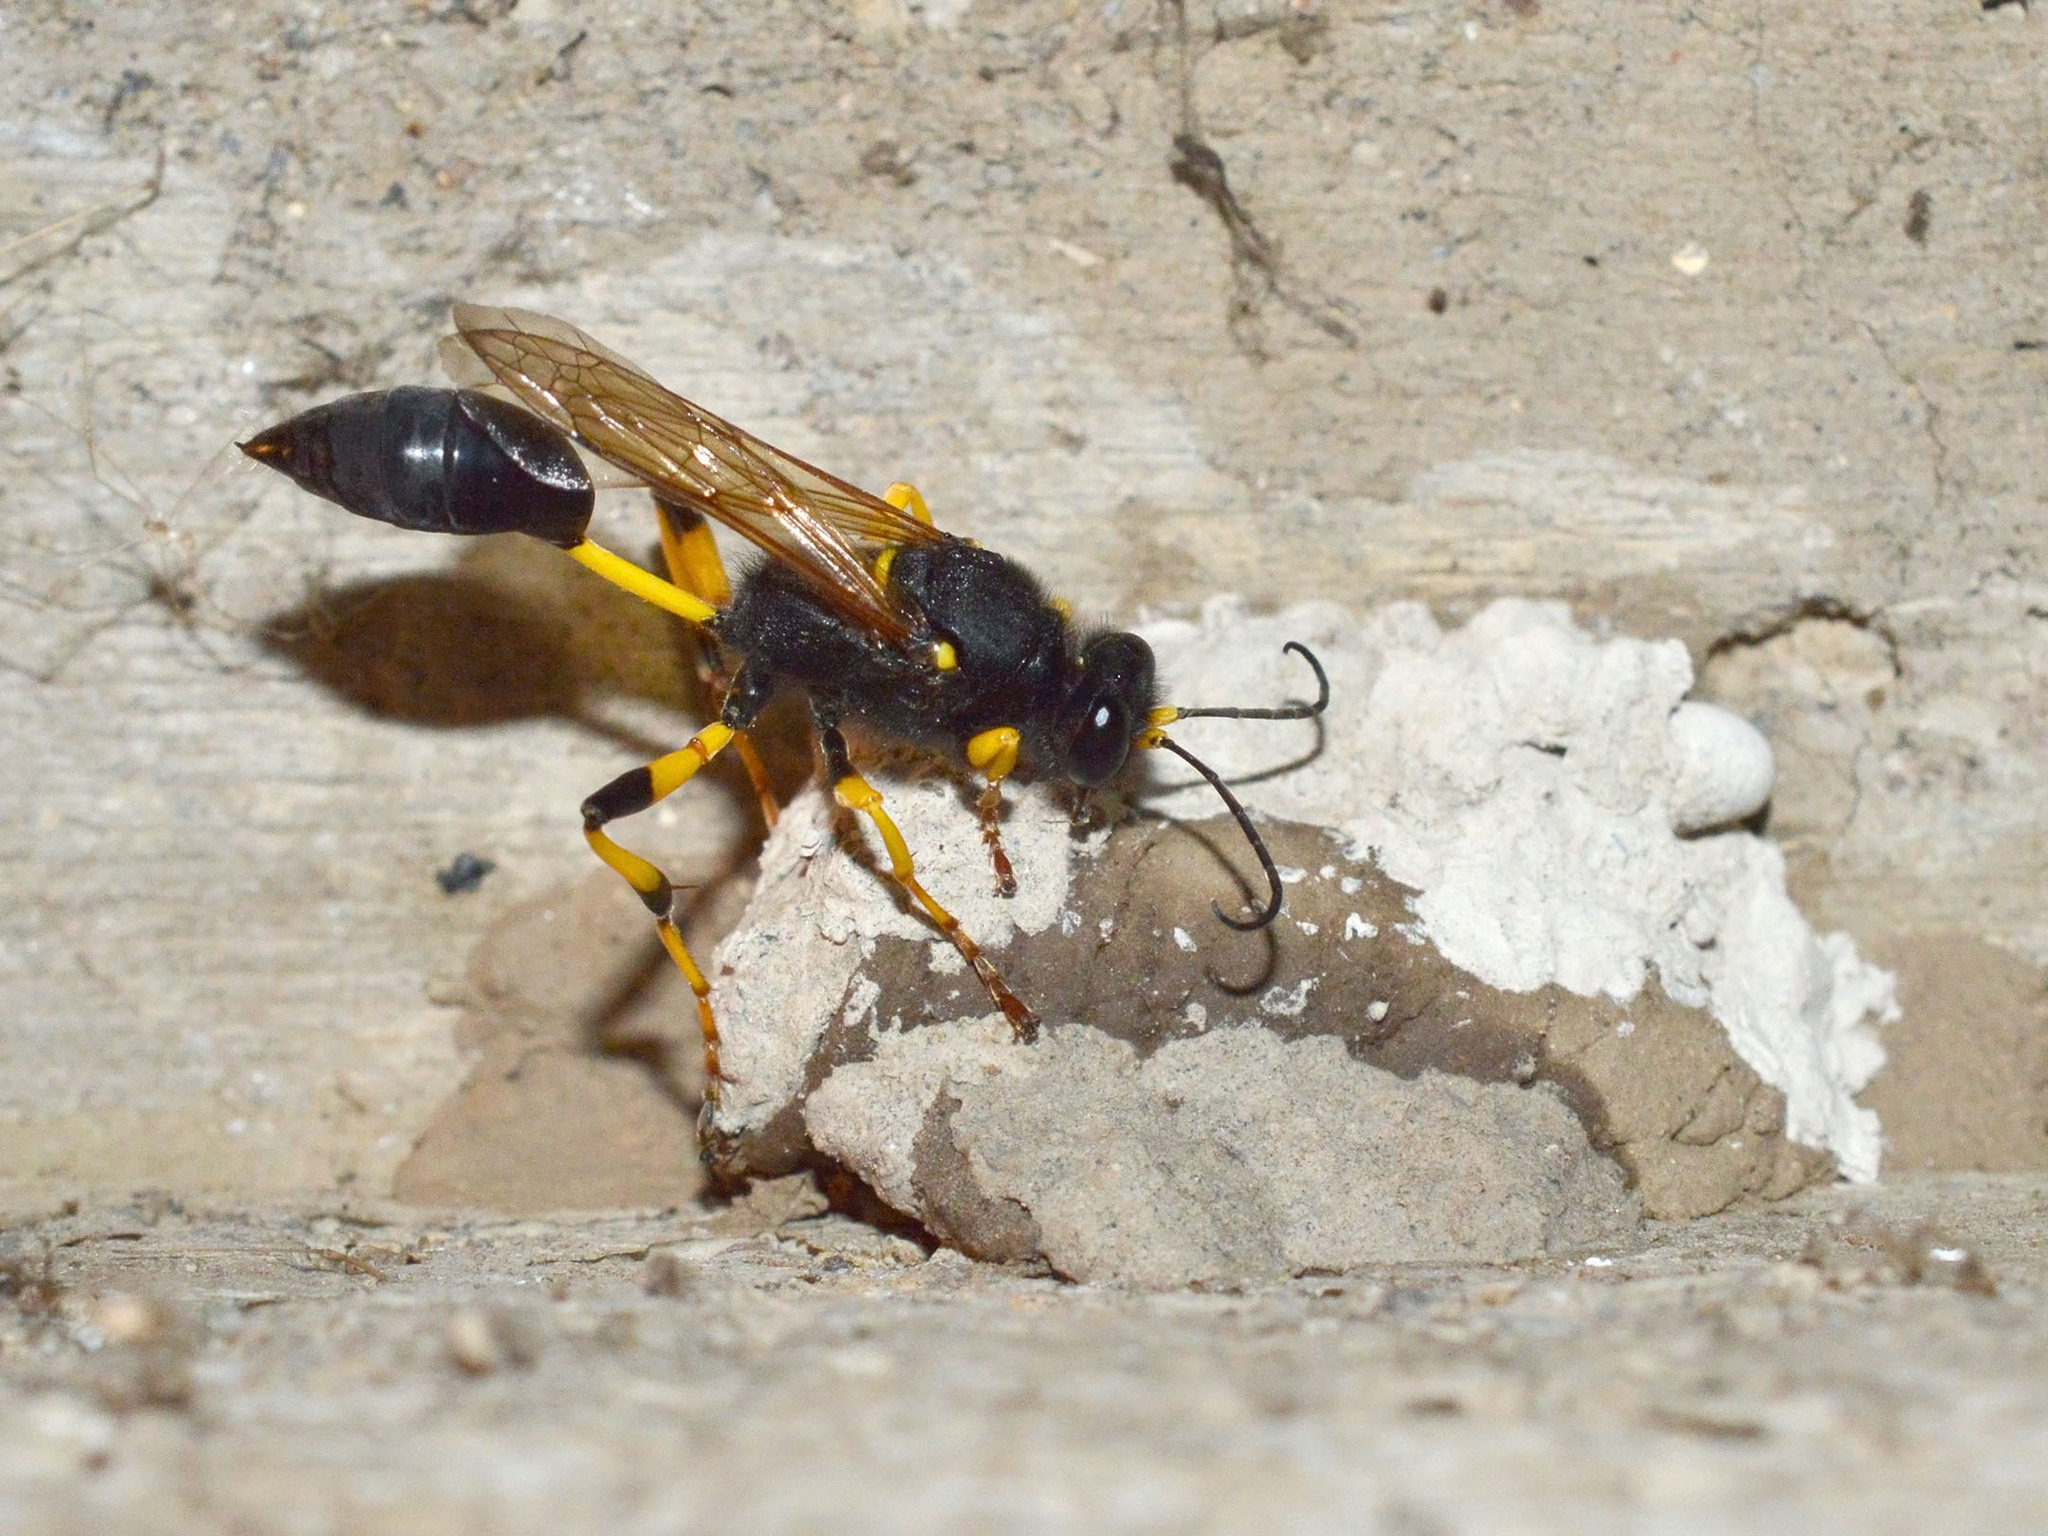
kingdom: Animalia
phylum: Arthropoda
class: Insecta
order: Hymenoptera
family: Sphecidae
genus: Sceliphron
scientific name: Sceliphron destillatorium
